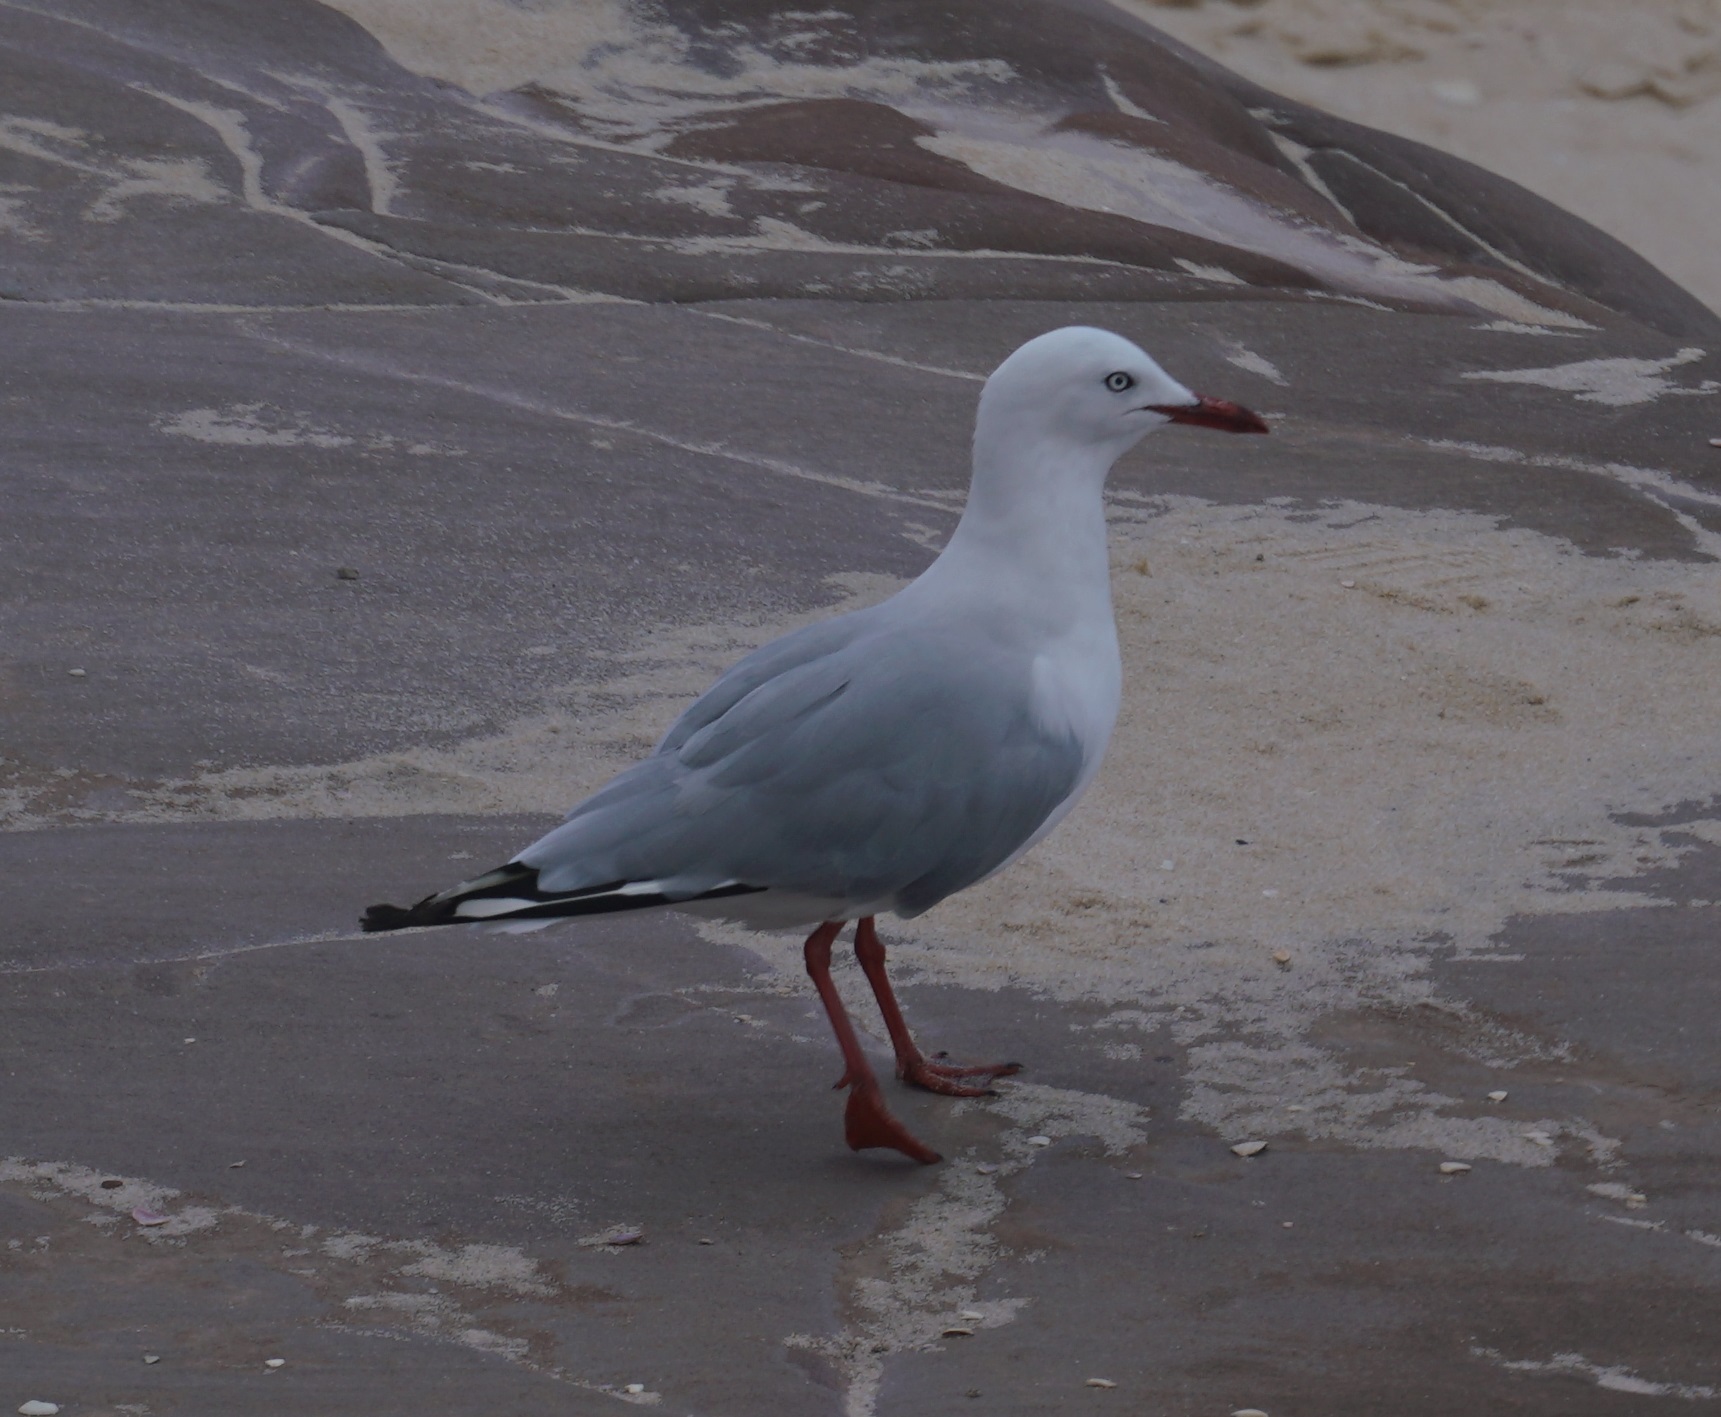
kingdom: Animalia
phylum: Chordata
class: Aves
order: Charadriiformes
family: Laridae
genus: Chroicocephalus
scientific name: Chroicocephalus novaehollandiae
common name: Silver gull
